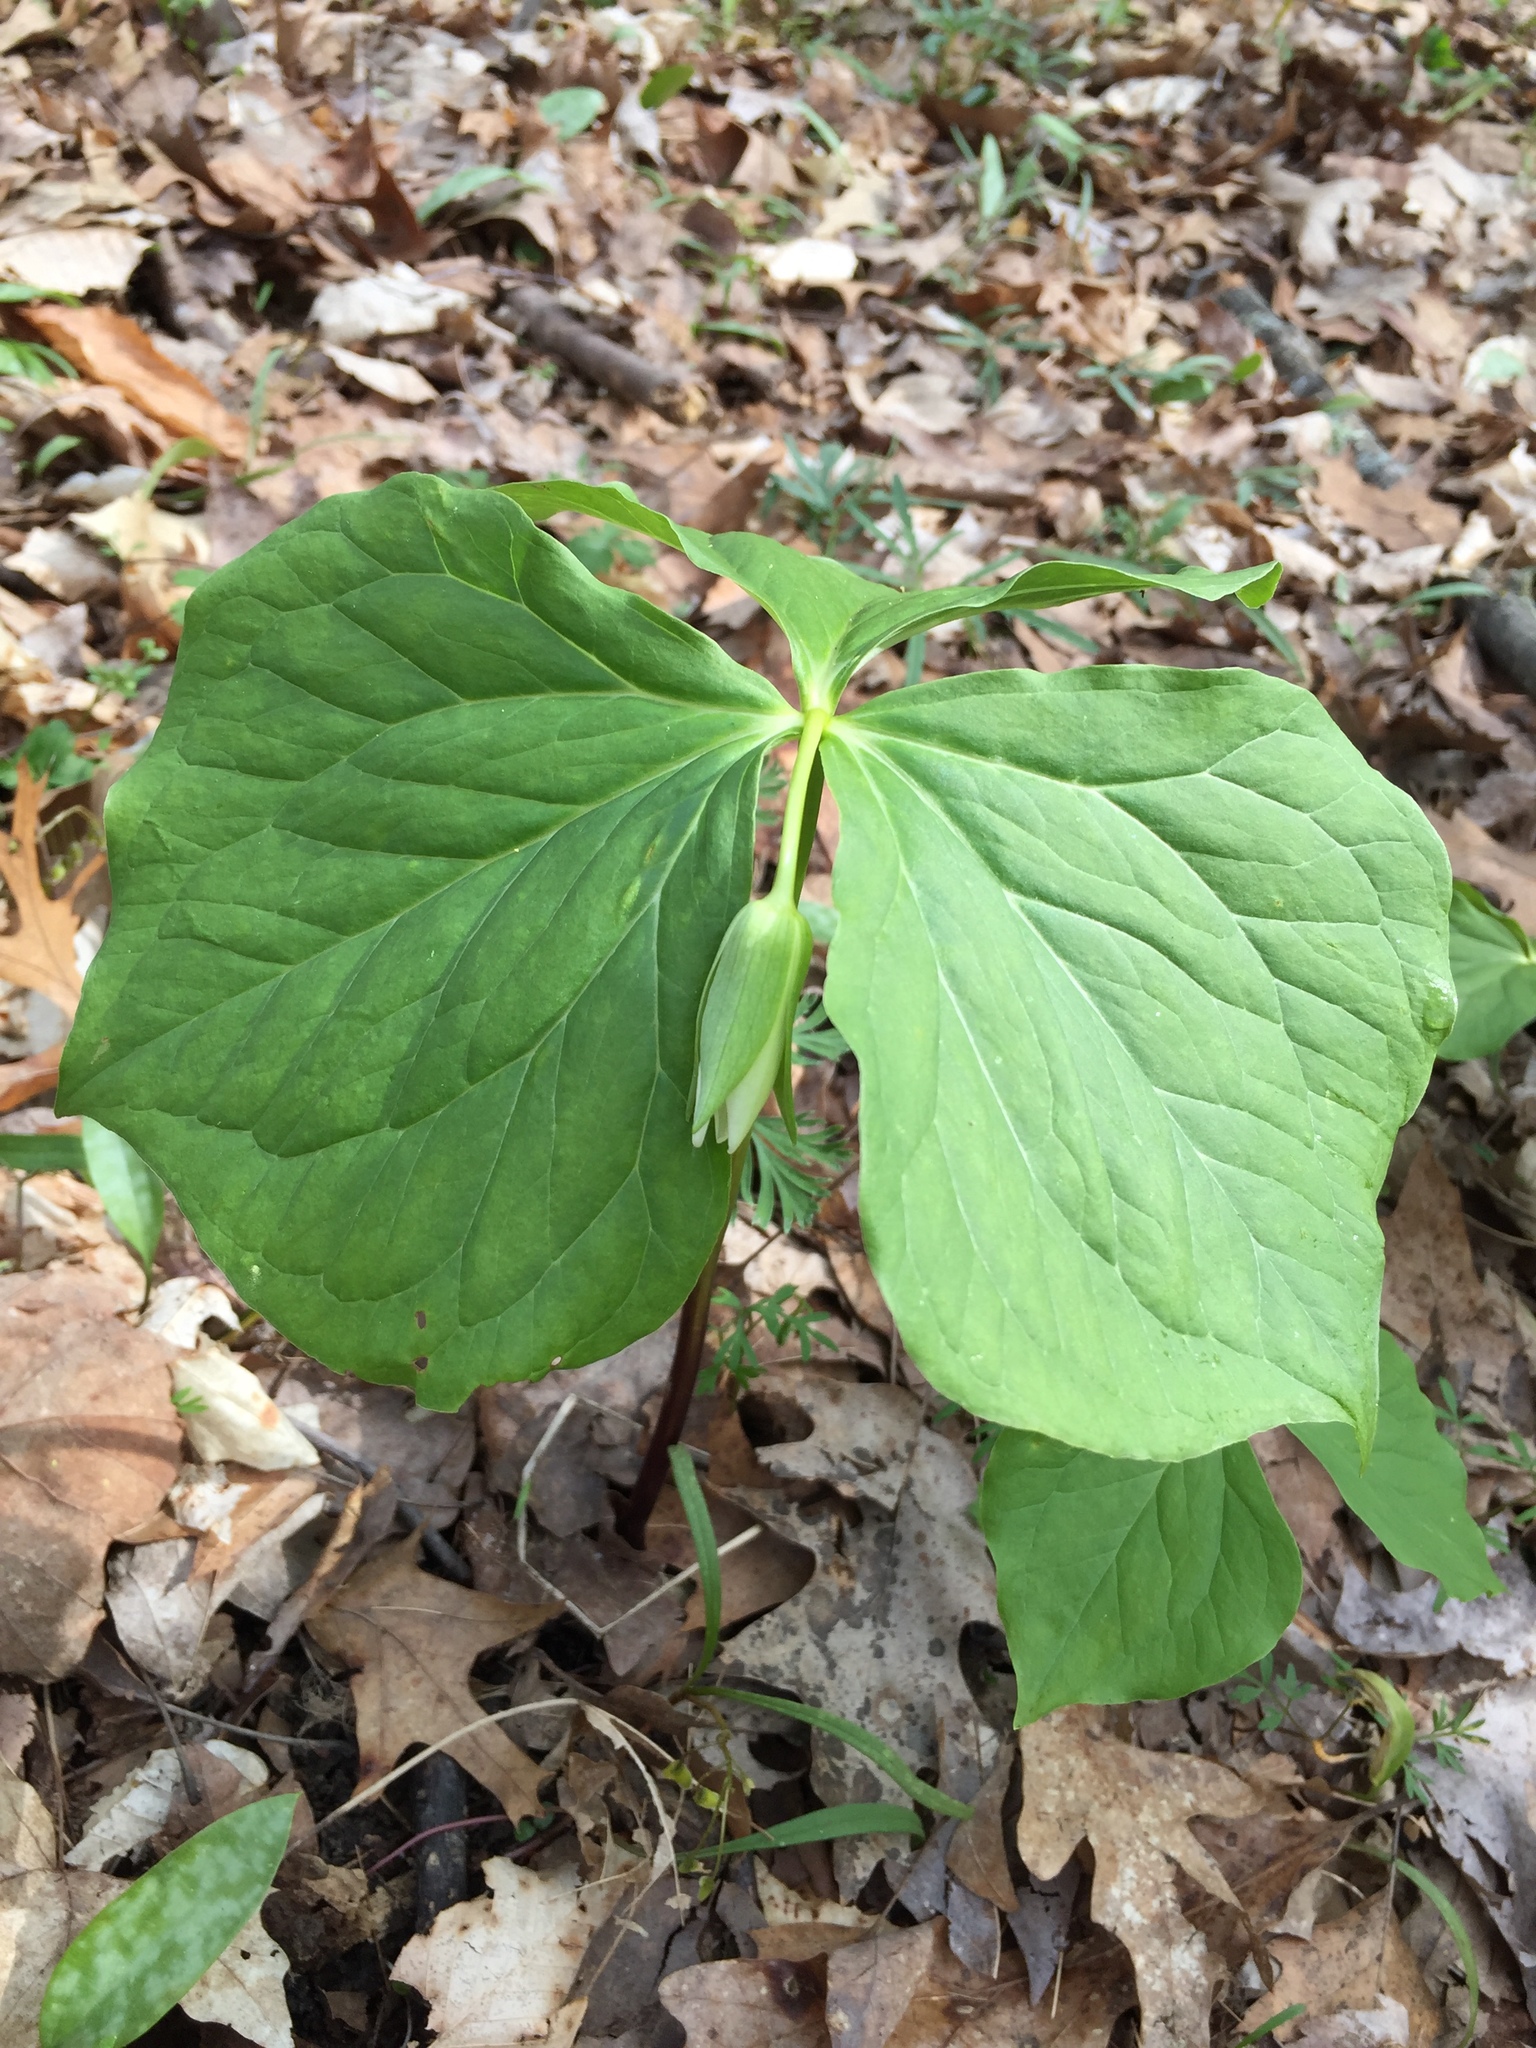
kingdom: Plantae
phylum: Tracheophyta
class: Liliopsida
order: Liliales
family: Melanthiaceae
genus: Trillium
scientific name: Trillium flexipes
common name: Drooping trillium
